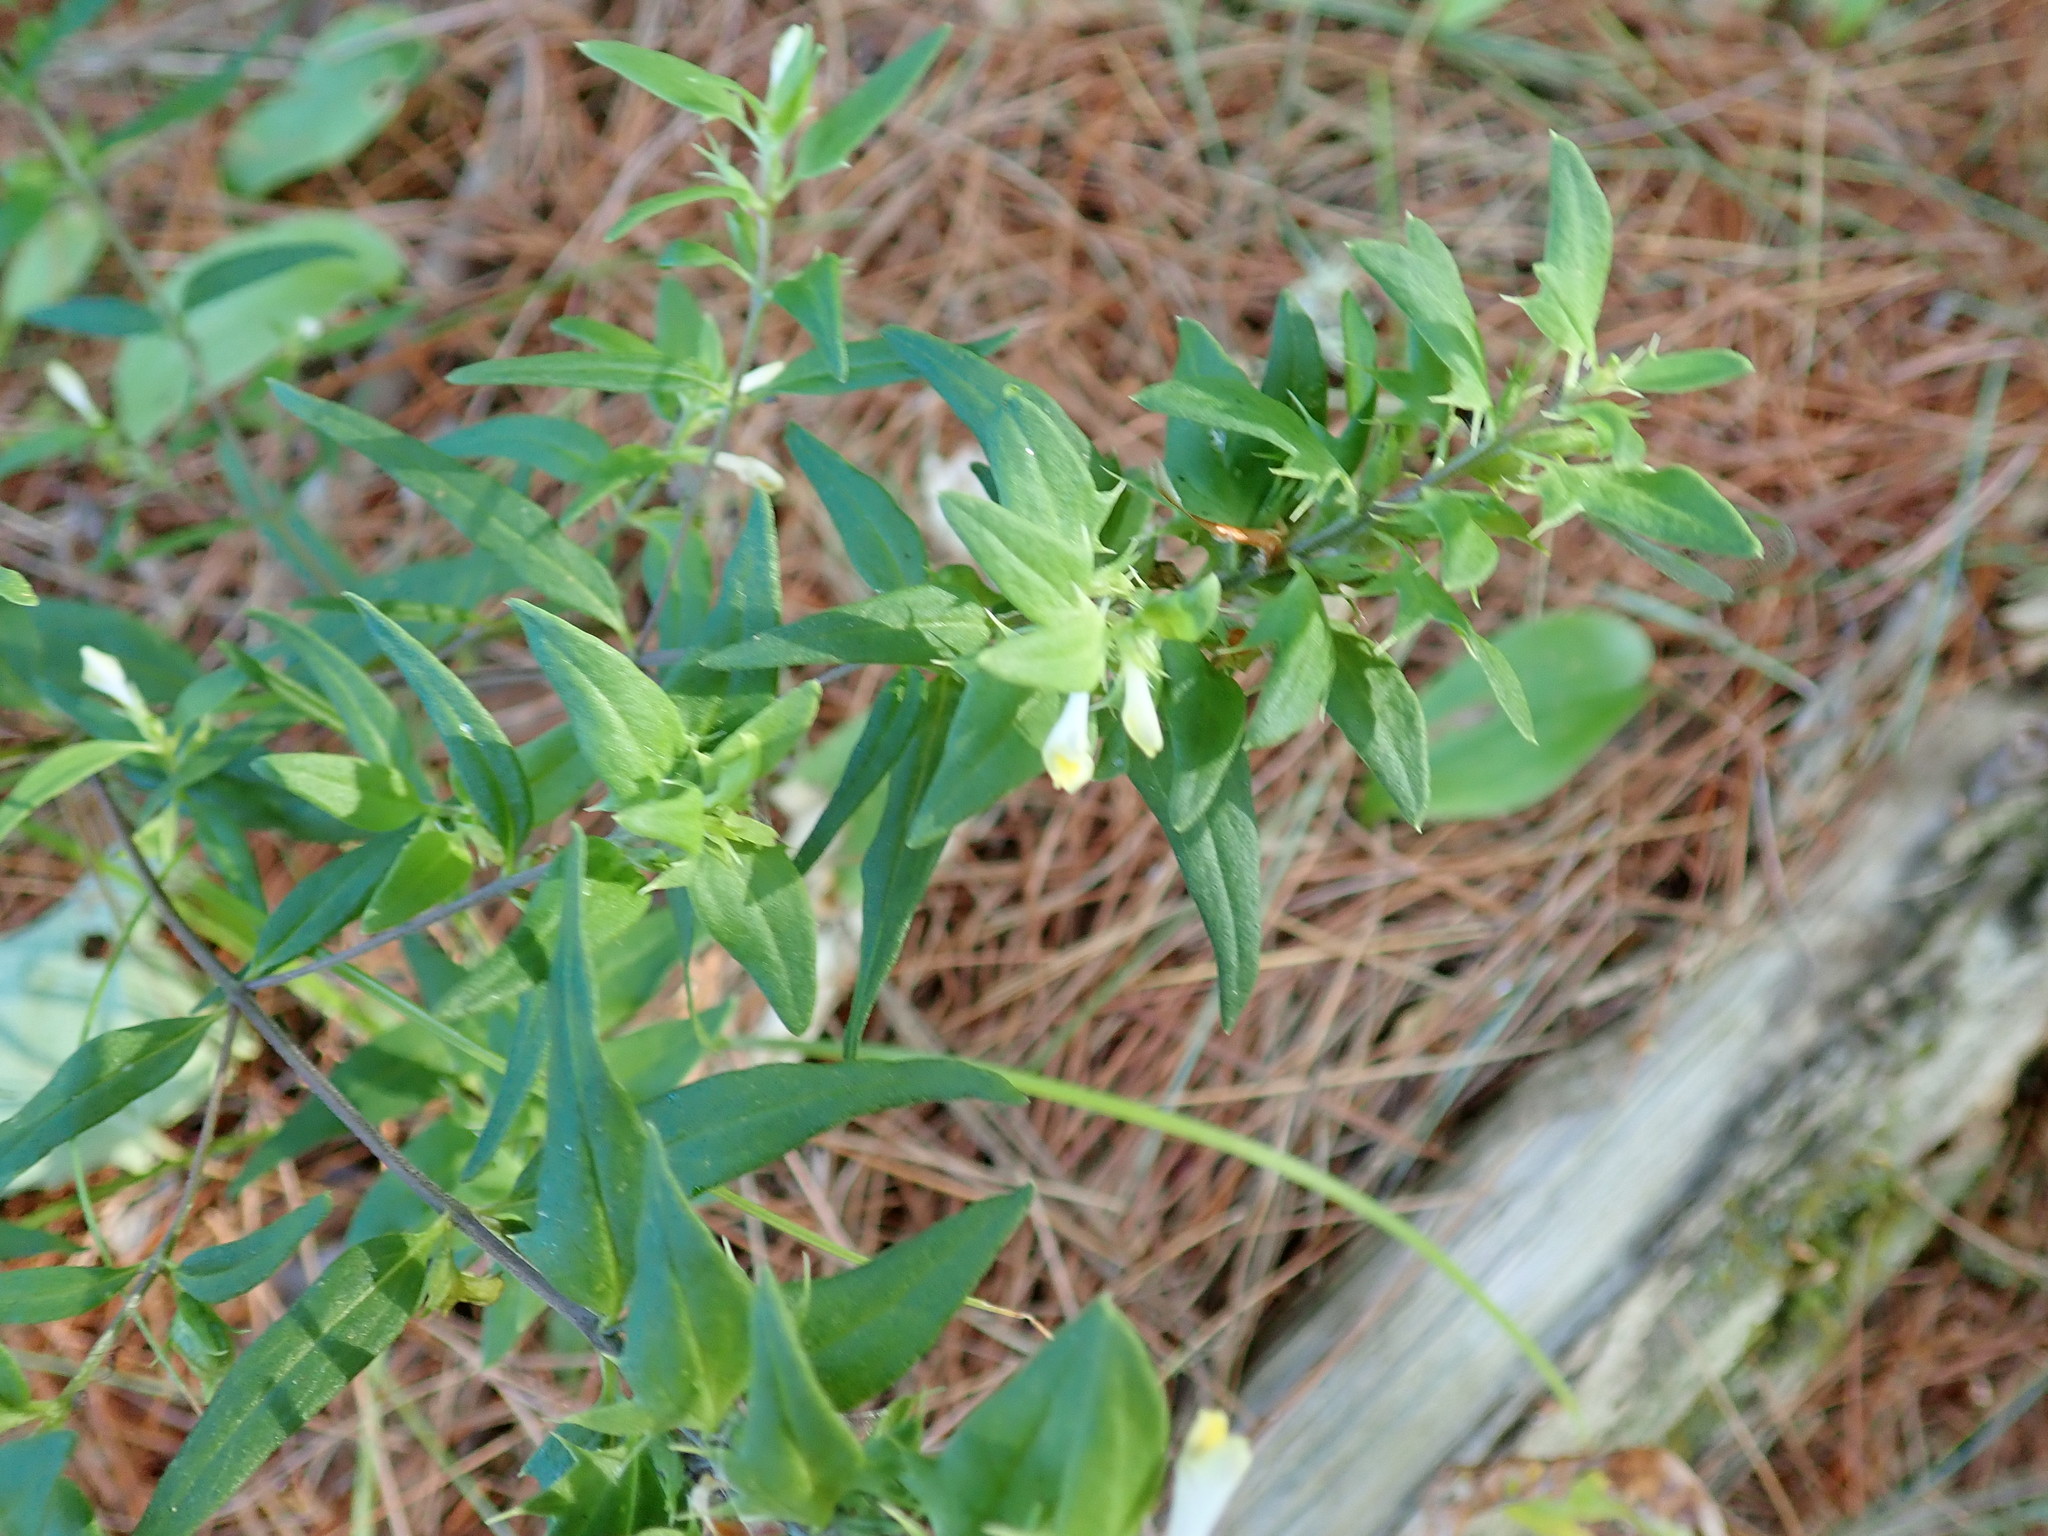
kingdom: Plantae
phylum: Tracheophyta
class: Magnoliopsida
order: Lamiales
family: Orobanchaceae
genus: Melampyrum
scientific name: Melampyrum lineare
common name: American cow-wheat
